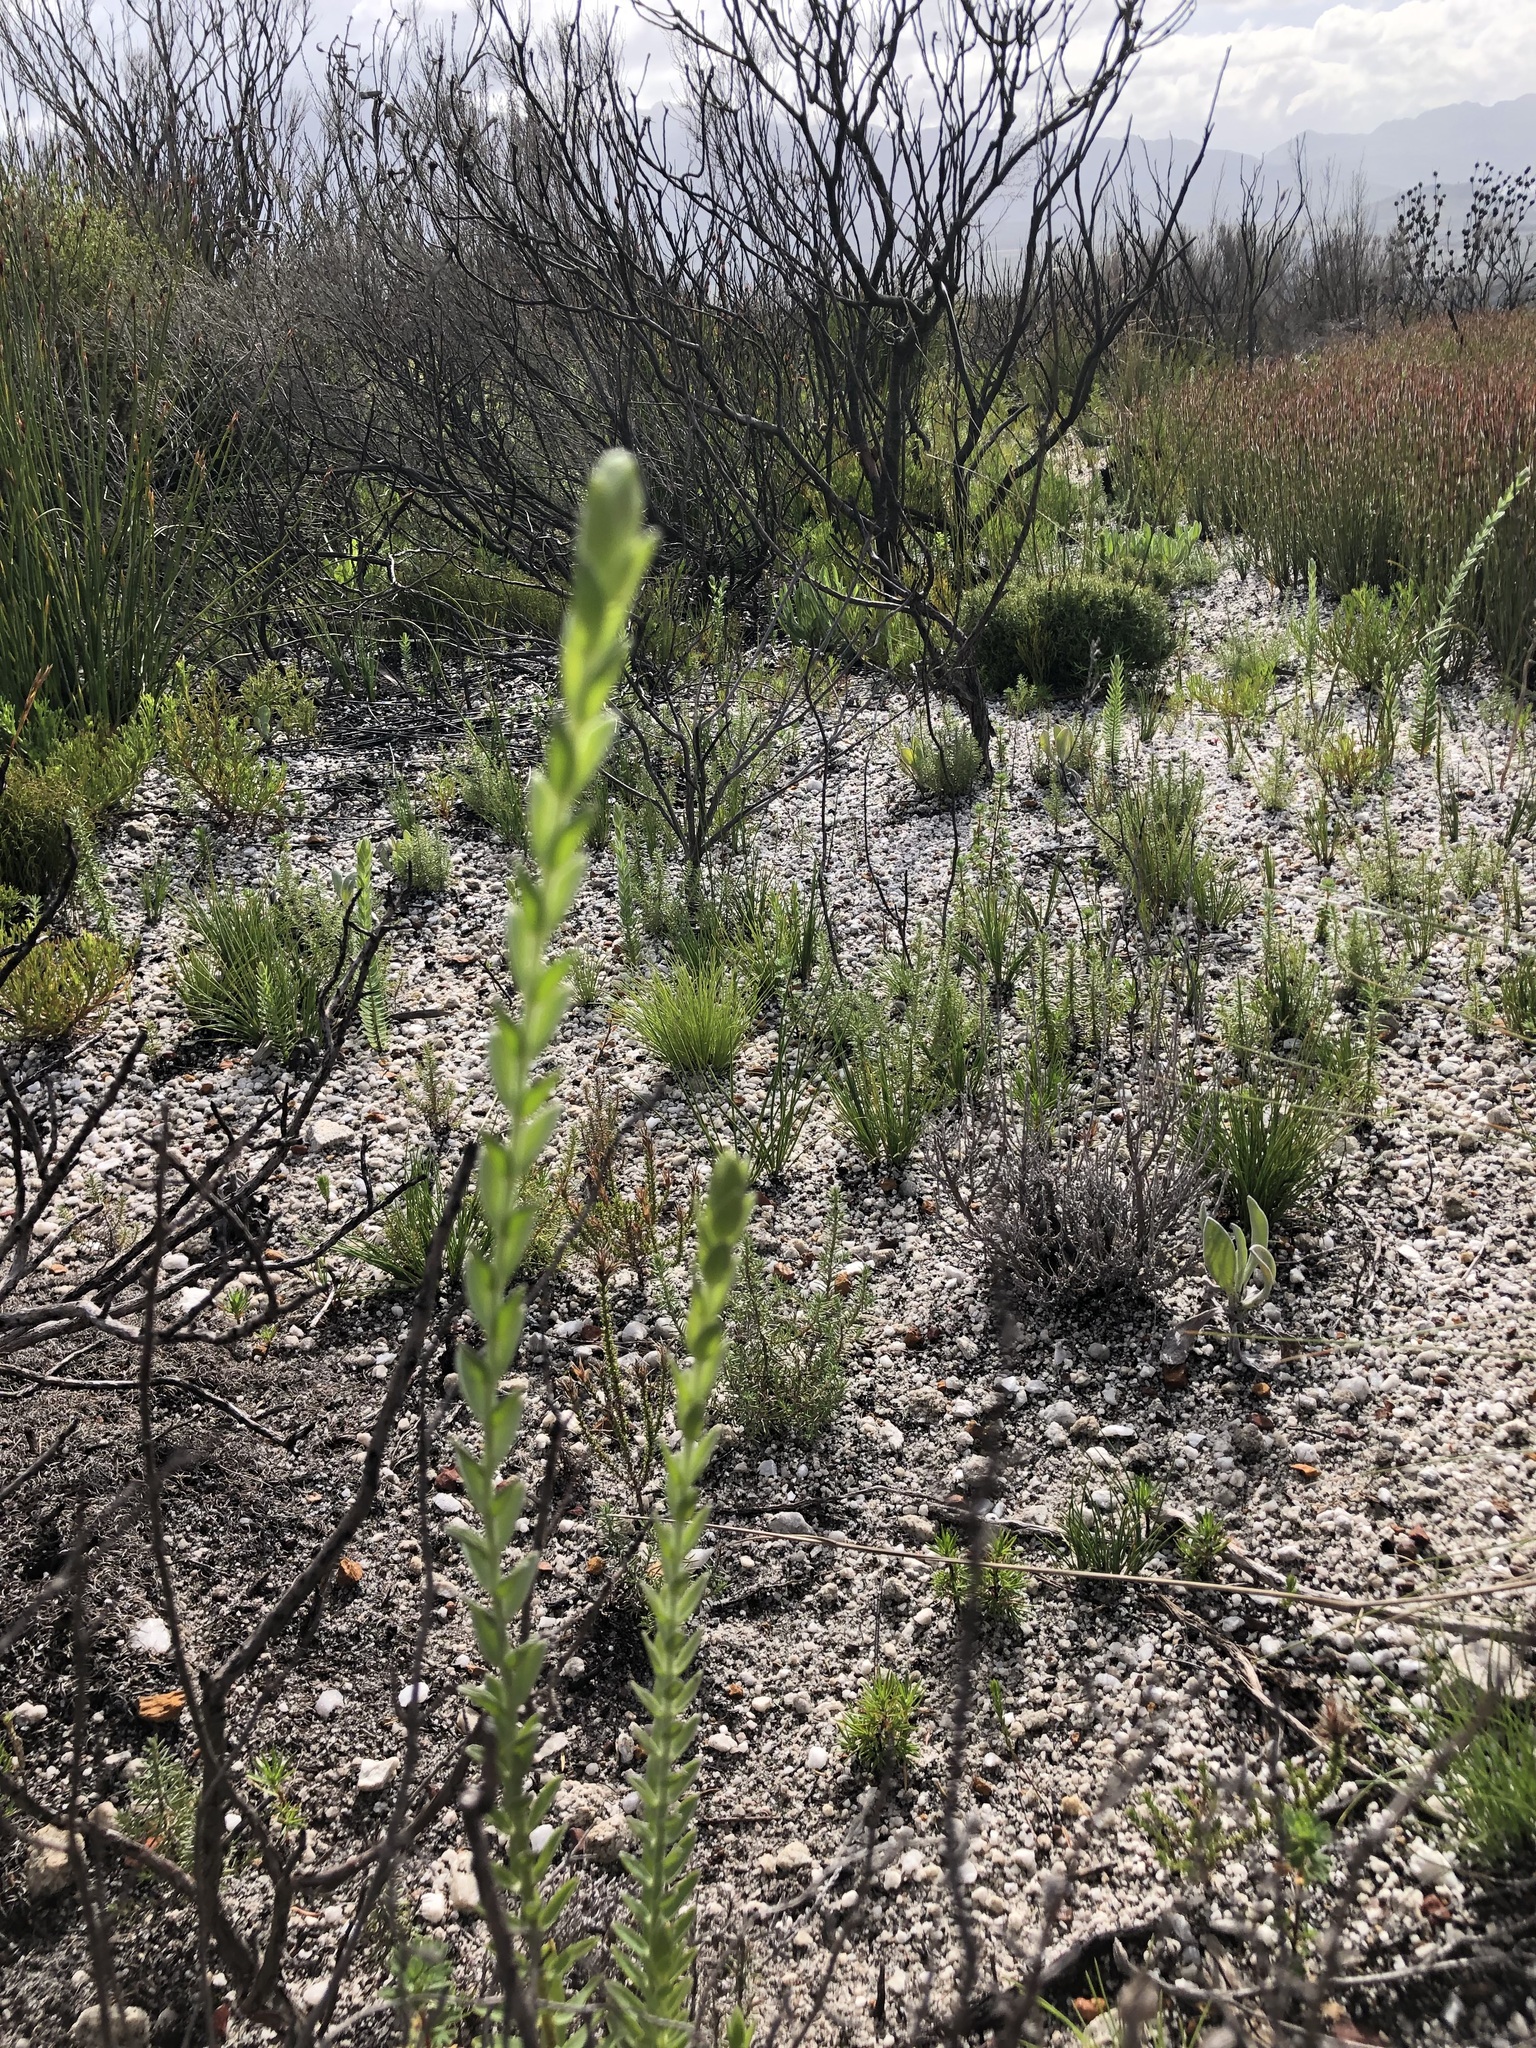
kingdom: Plantae
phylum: Tracheophyta
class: Magnoliopsida
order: Malvales
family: Thymelaeaceae
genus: Gnidia
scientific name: Gnidia anomala
